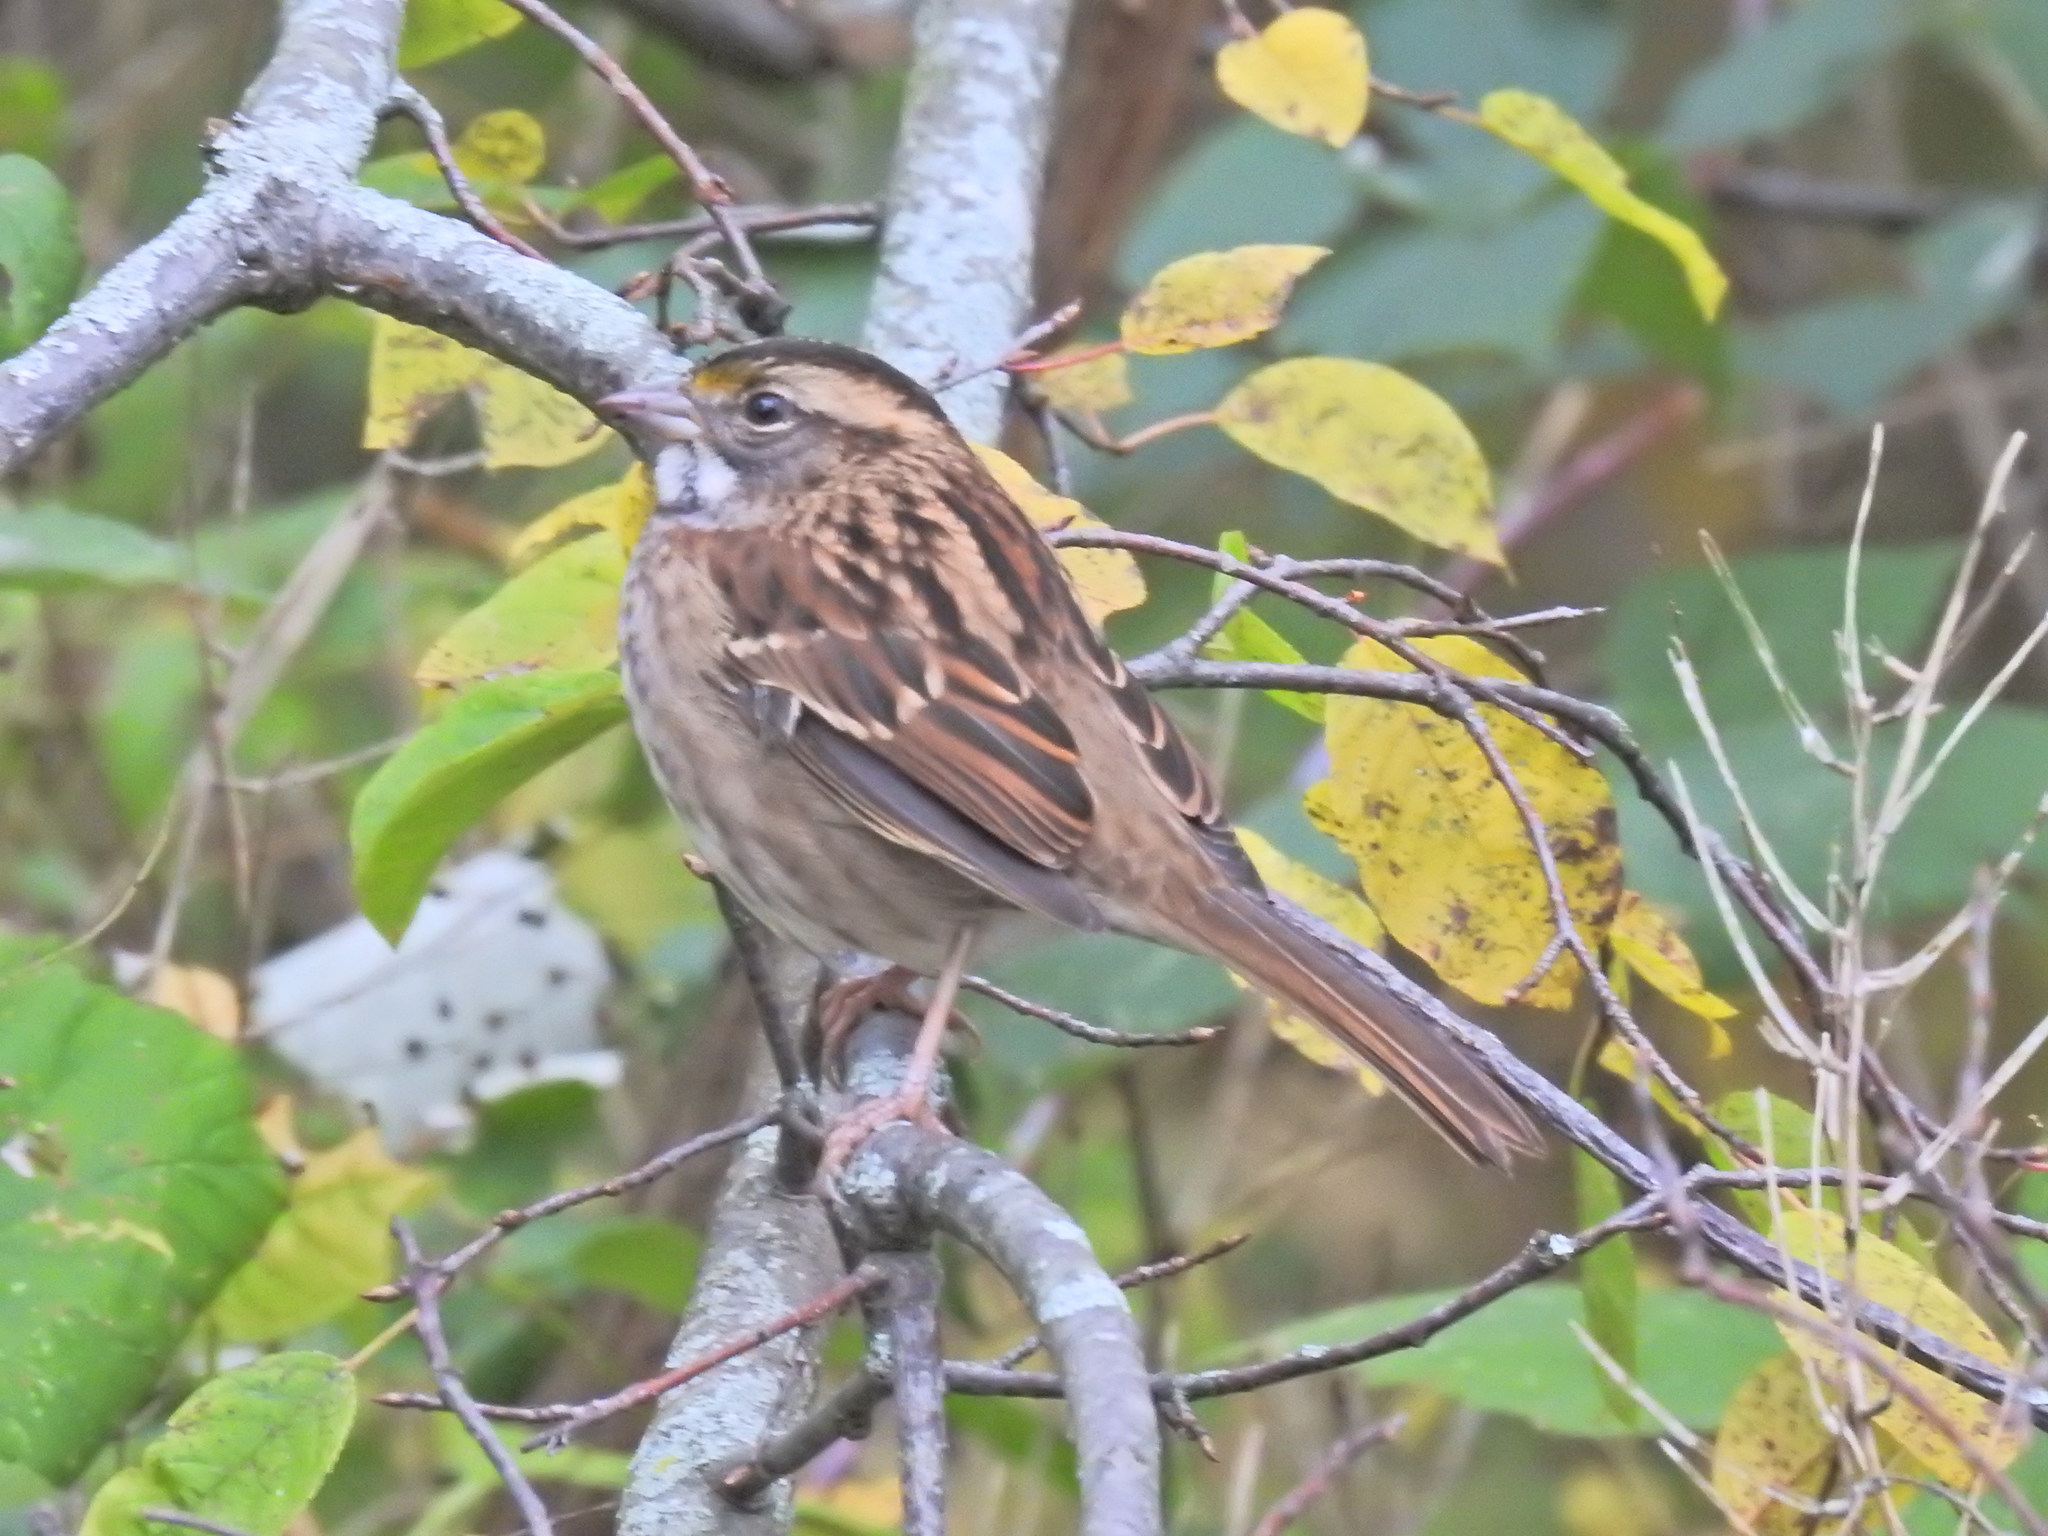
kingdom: Animalia
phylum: Chordata
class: Aves
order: Passeriformes
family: Passerellidae
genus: Zonotrichia
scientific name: Zonotrichia albicollis
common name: White-throated sparrow
